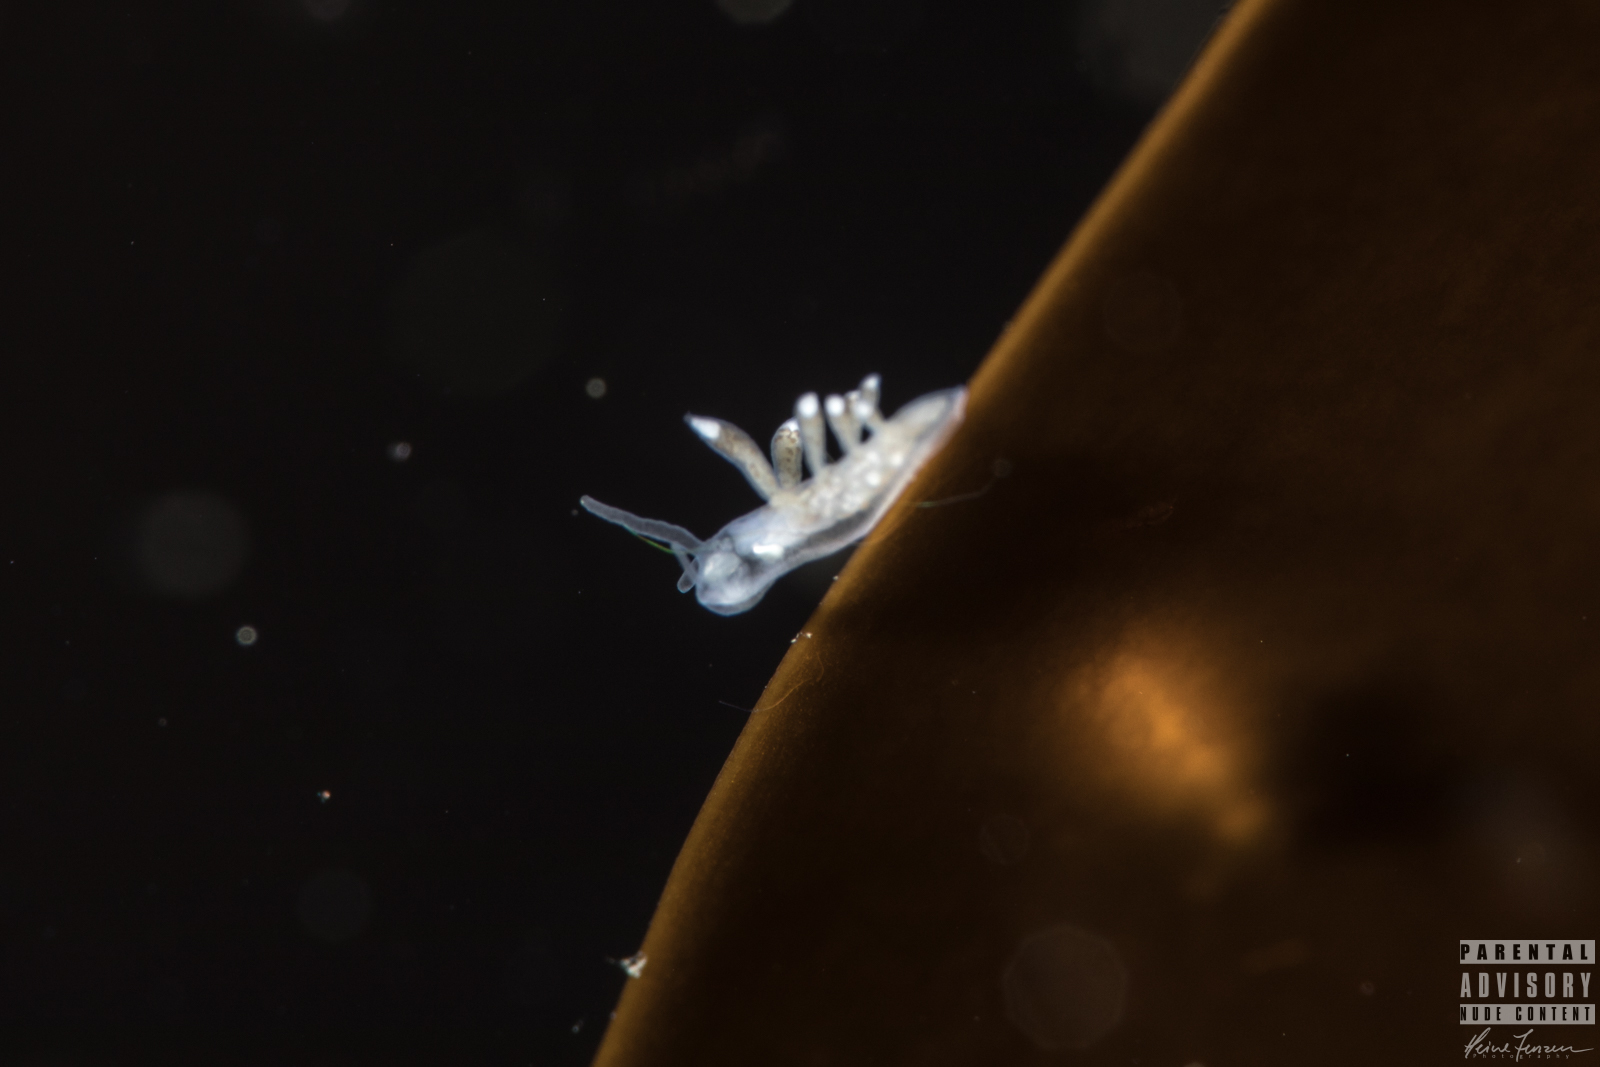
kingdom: Animalia
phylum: Mollusca
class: Gastropoda
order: Nudibranchia
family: Tergipedidae
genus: Tergipes
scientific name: Tergipes tergipes
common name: Johnston's balloon eolis
